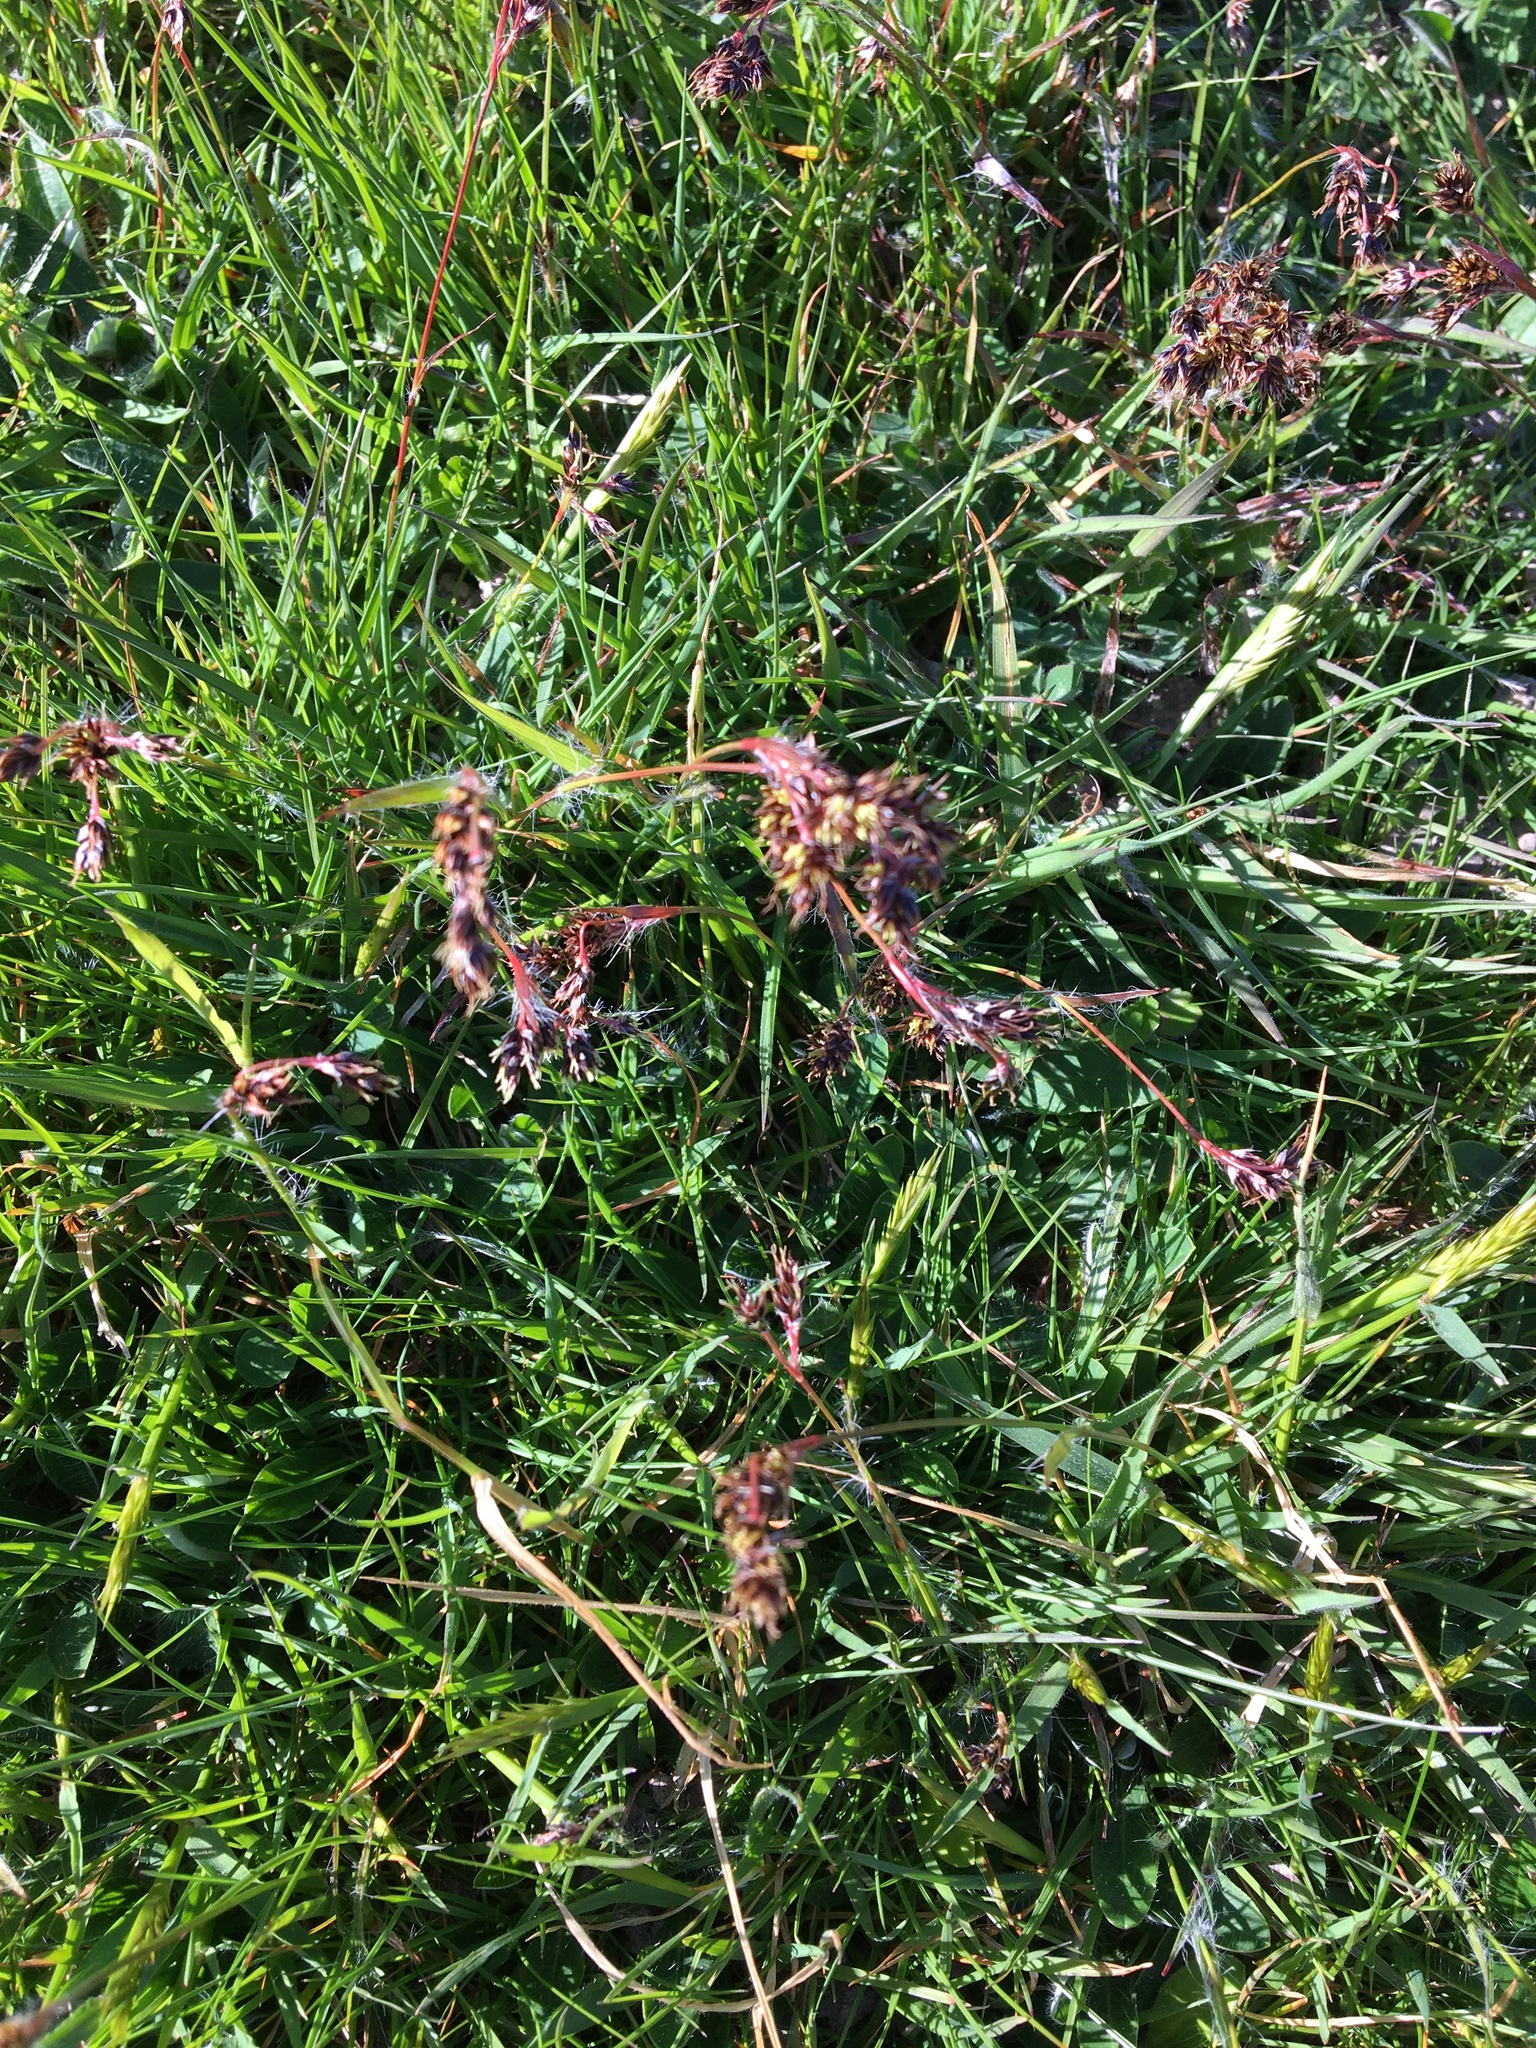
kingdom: Plantae
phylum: Tracheophyta
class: Liliopsida
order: Poales
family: Juncaceae
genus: Luzula
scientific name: Luzula campestris
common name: Field wood-rush
